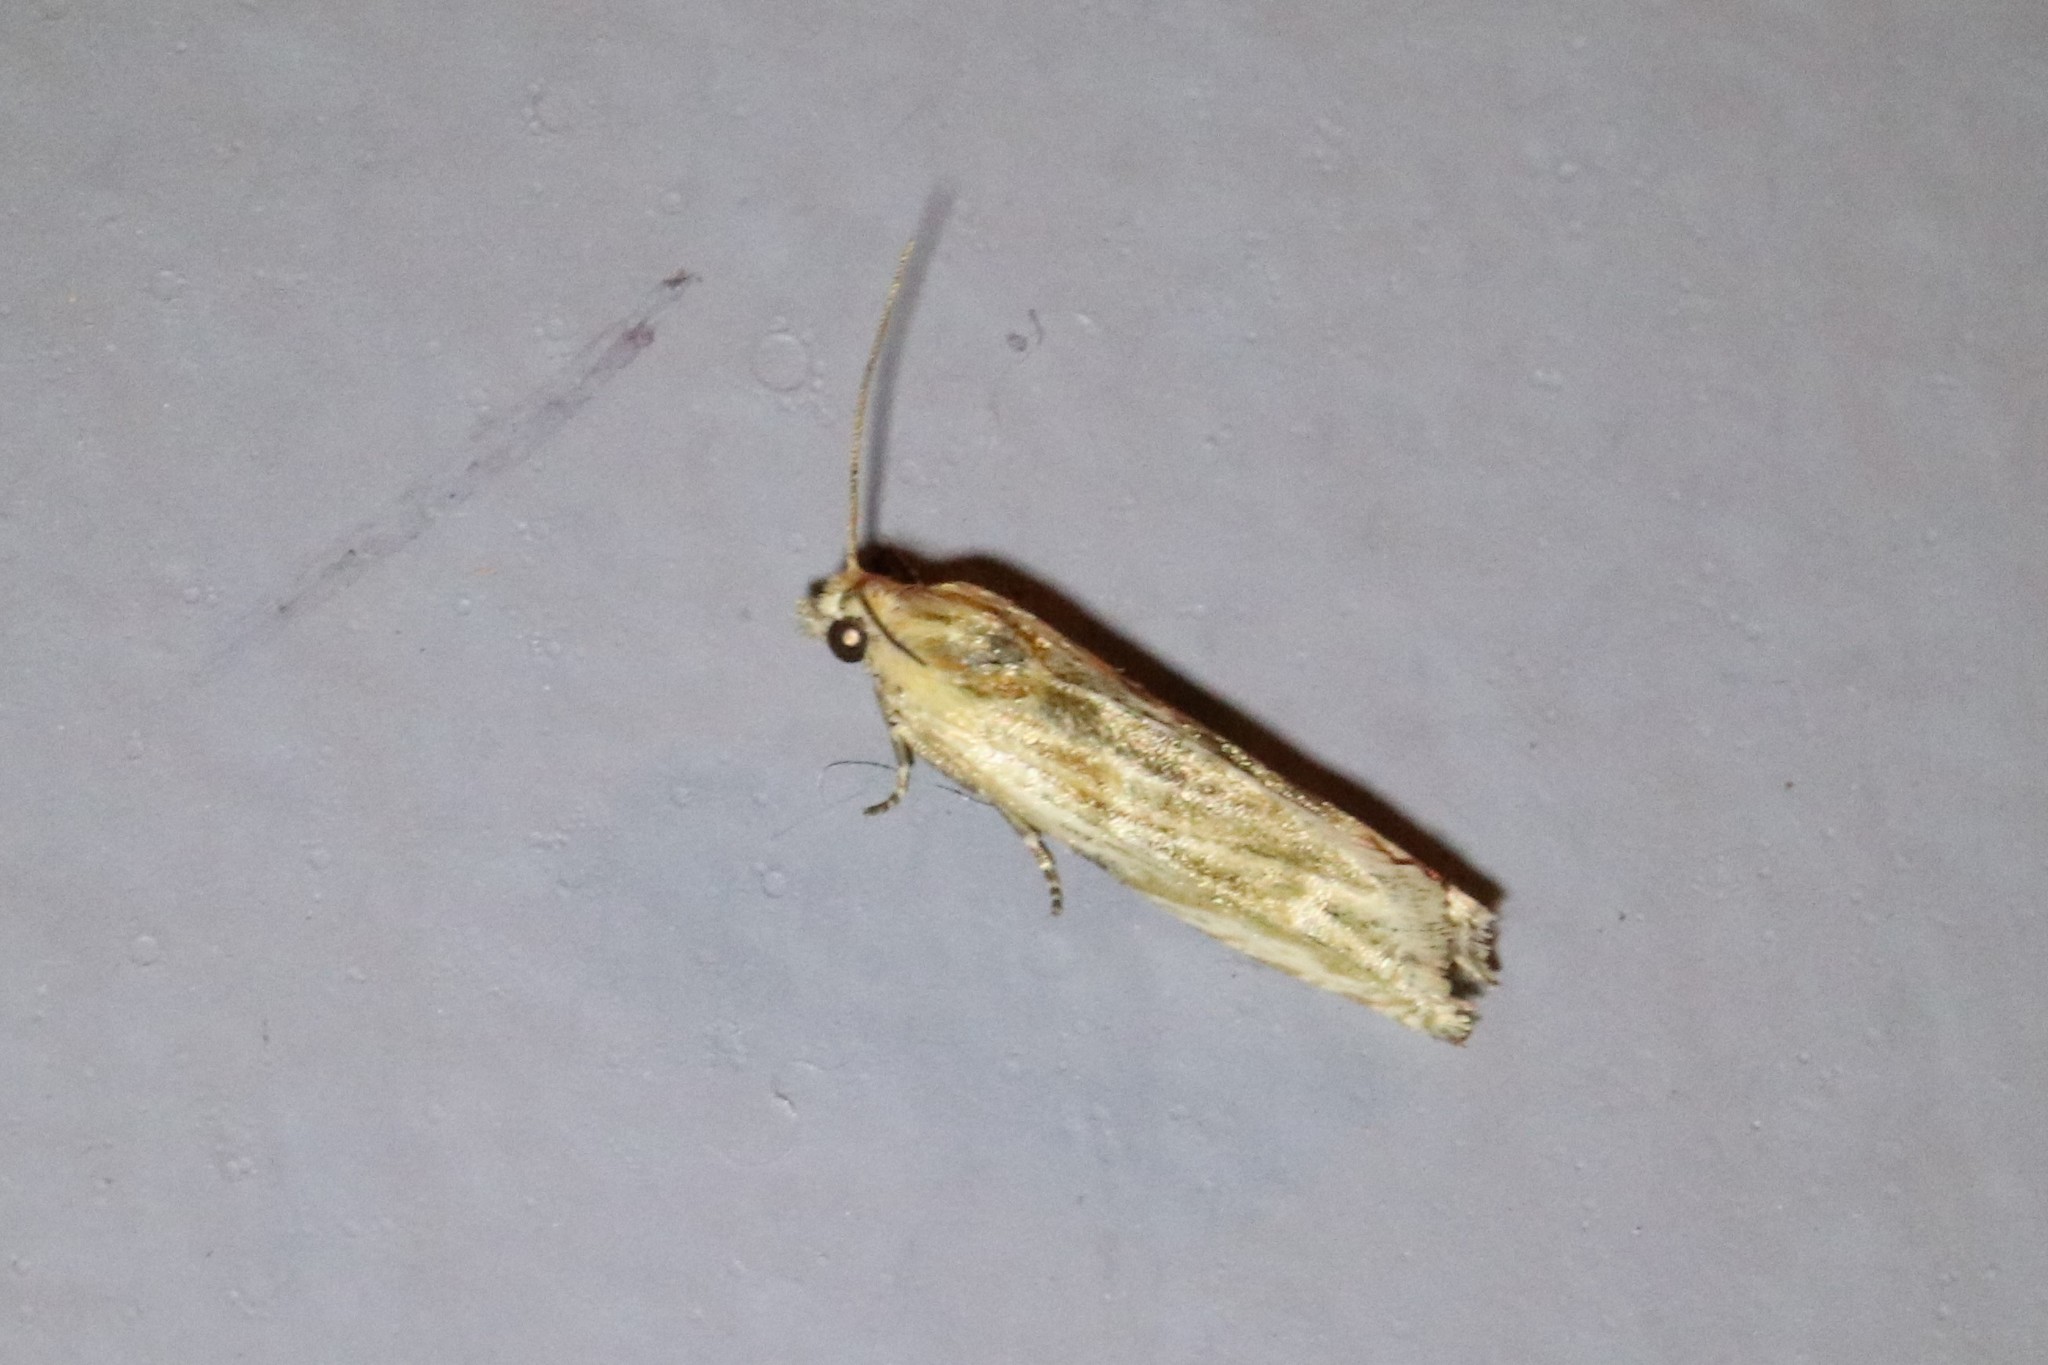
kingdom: Animalia
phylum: Arthropoda
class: Insecta
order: Lepidoptera
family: Tortricidae
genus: Eucosma
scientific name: Eucosma olivaceana
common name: Olivaceous eucosma moth
